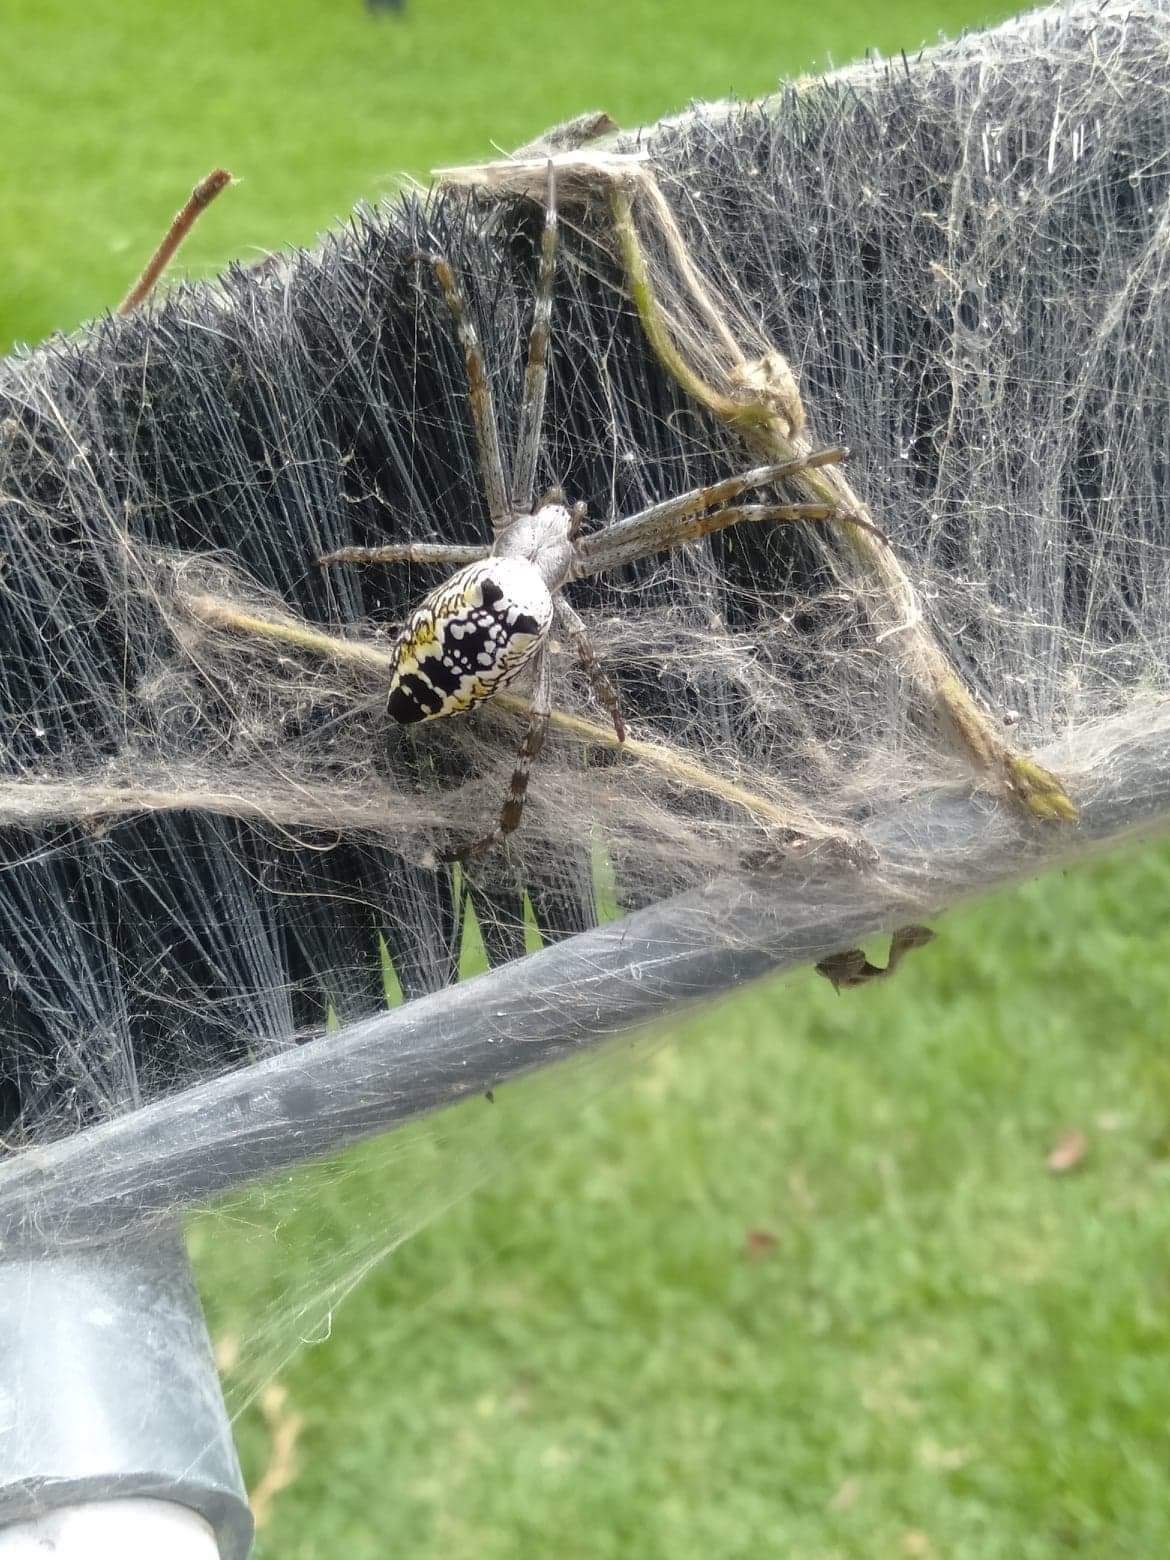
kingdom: Chromista
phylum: Ochrophyta
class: Dictyochophyceae
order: Pedinellales
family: Cyrtophoraceae
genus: Cyrtophora
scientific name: Cyrtophora moluccensis
